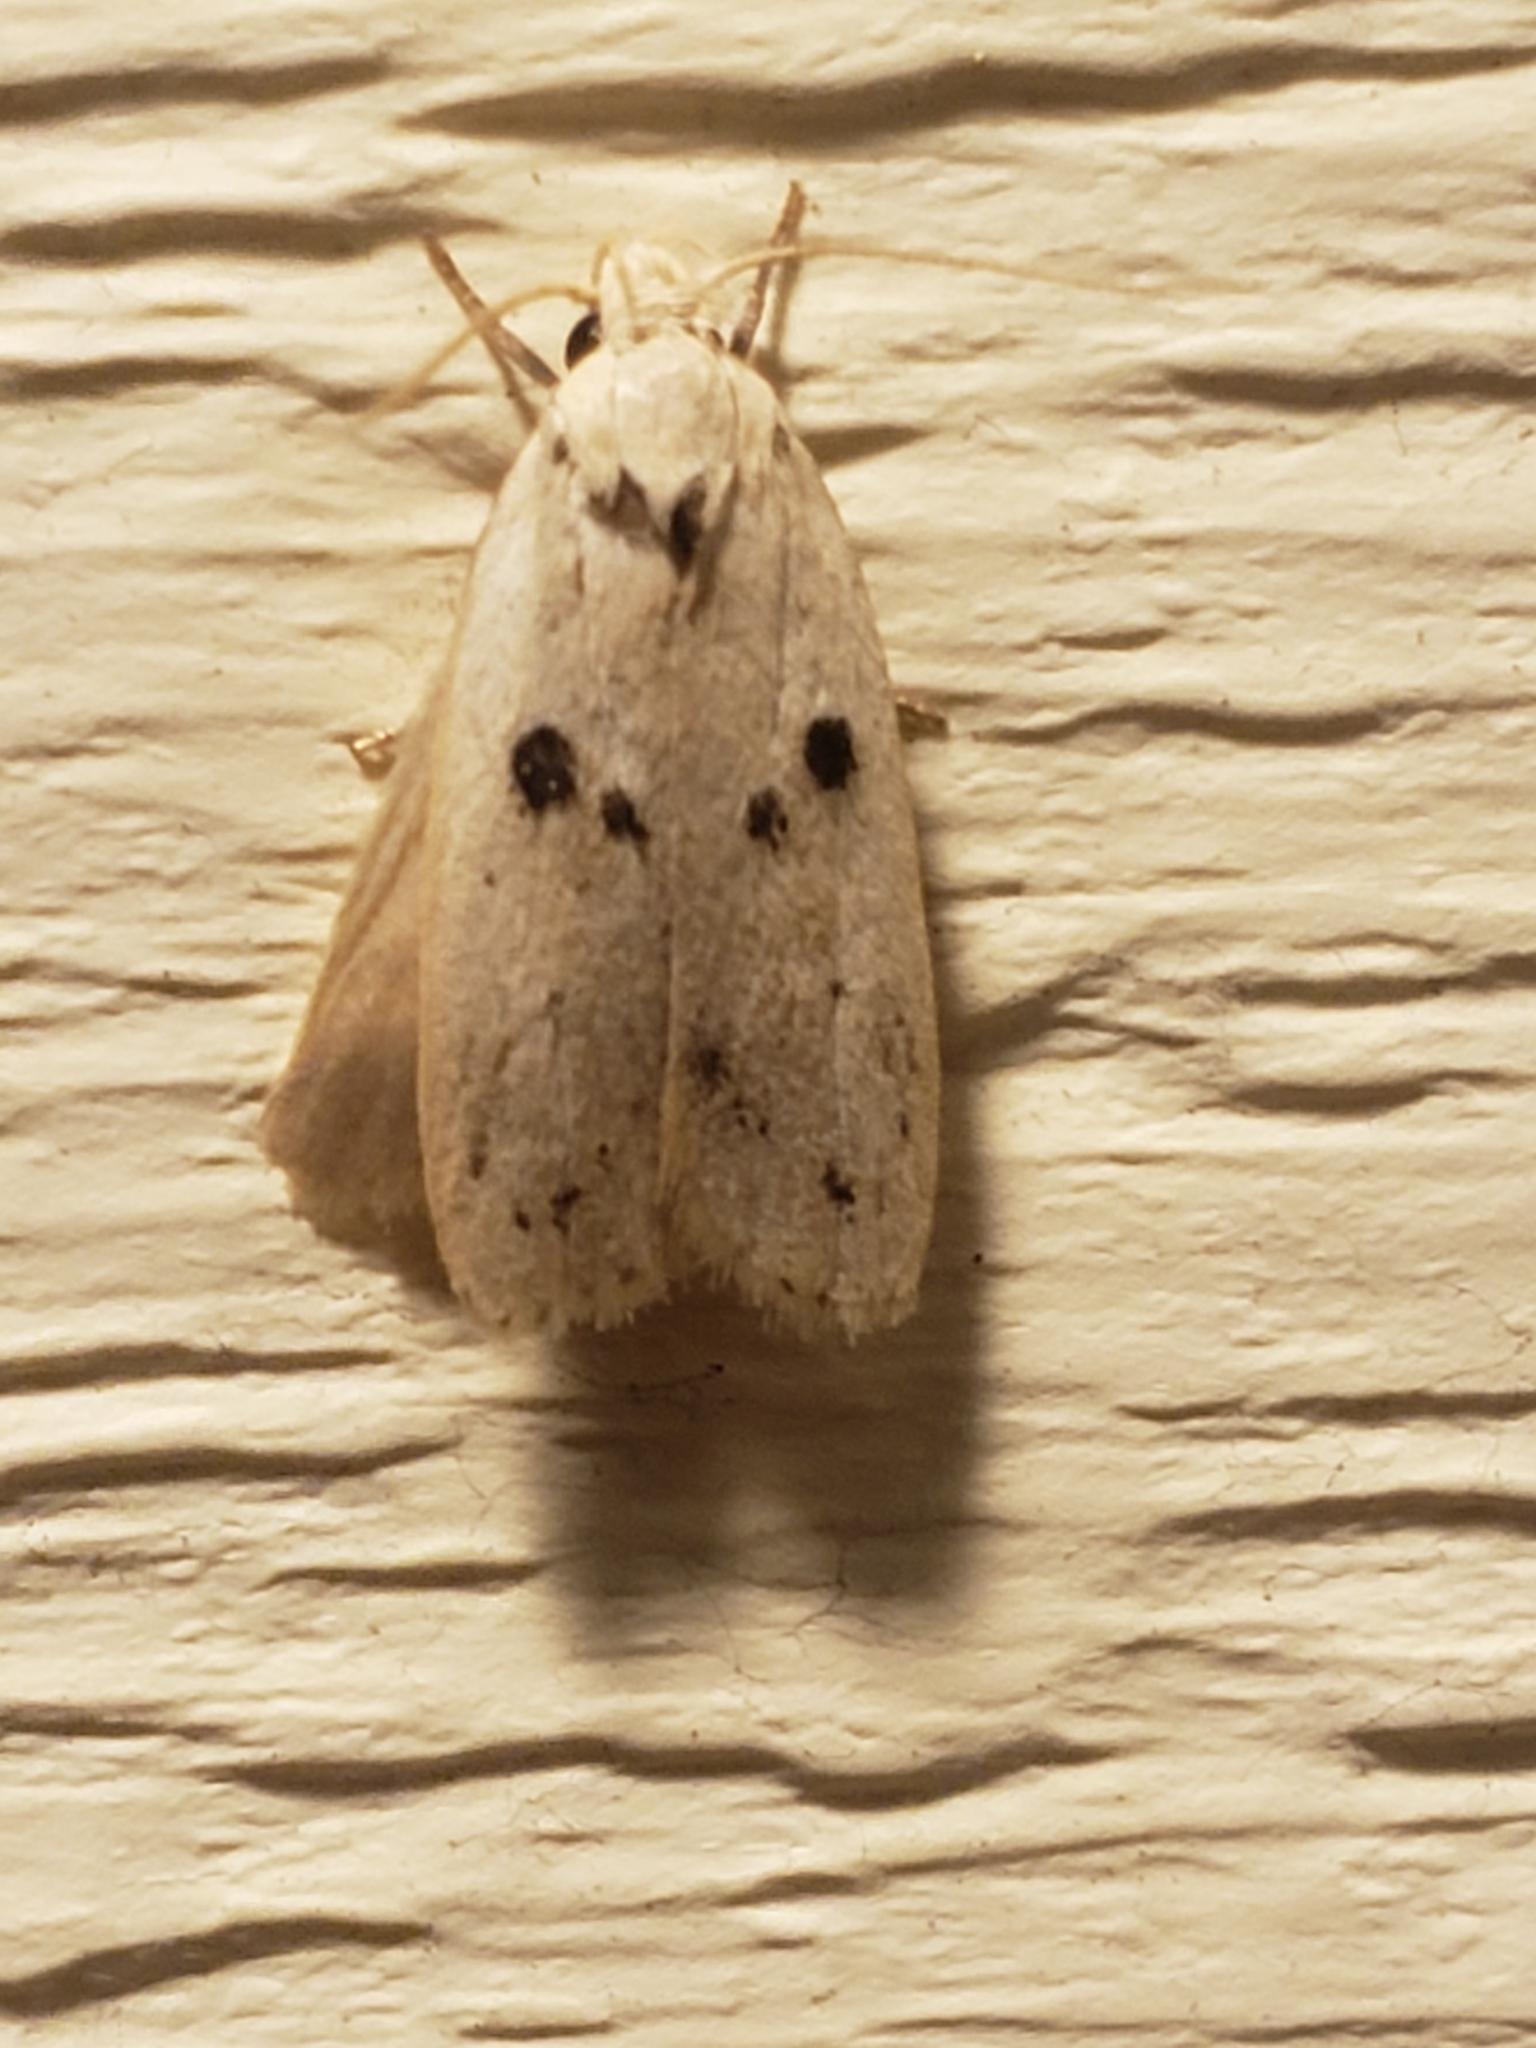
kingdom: Animalia
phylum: Arthropoda
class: Insecta
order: Lepidoptera
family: Peleopodidae
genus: Scythropiodes
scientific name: Scythropiodes issikii
